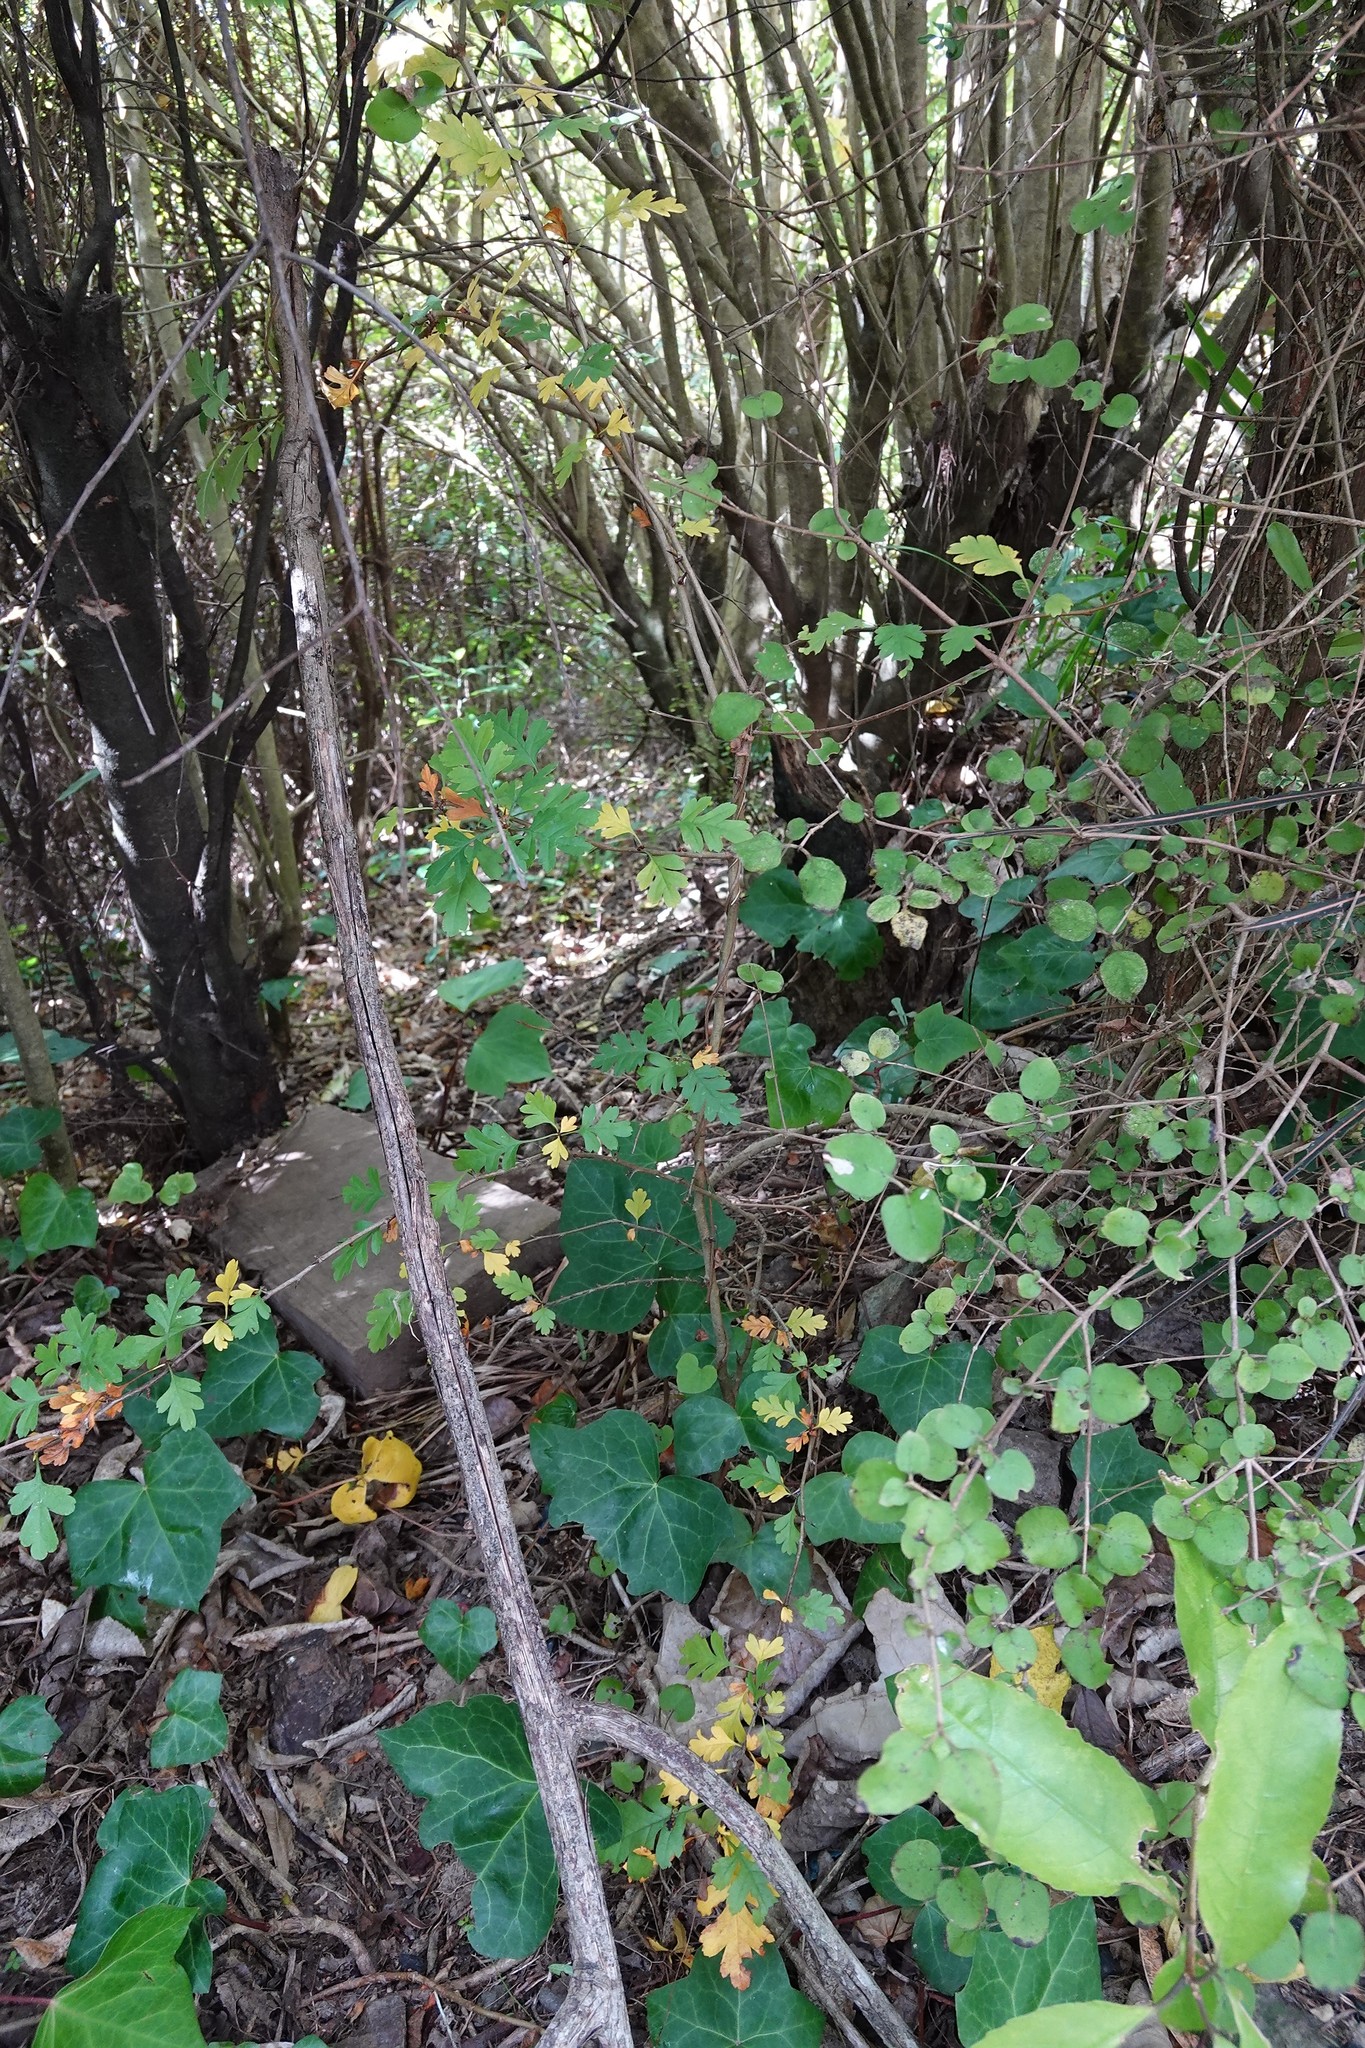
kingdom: Plantae
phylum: Tracheophyta
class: Magnoliopsida
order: Rosales
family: Rosaceae
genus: Crataegus
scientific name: Crataegus monogyna
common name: Hawthorn
